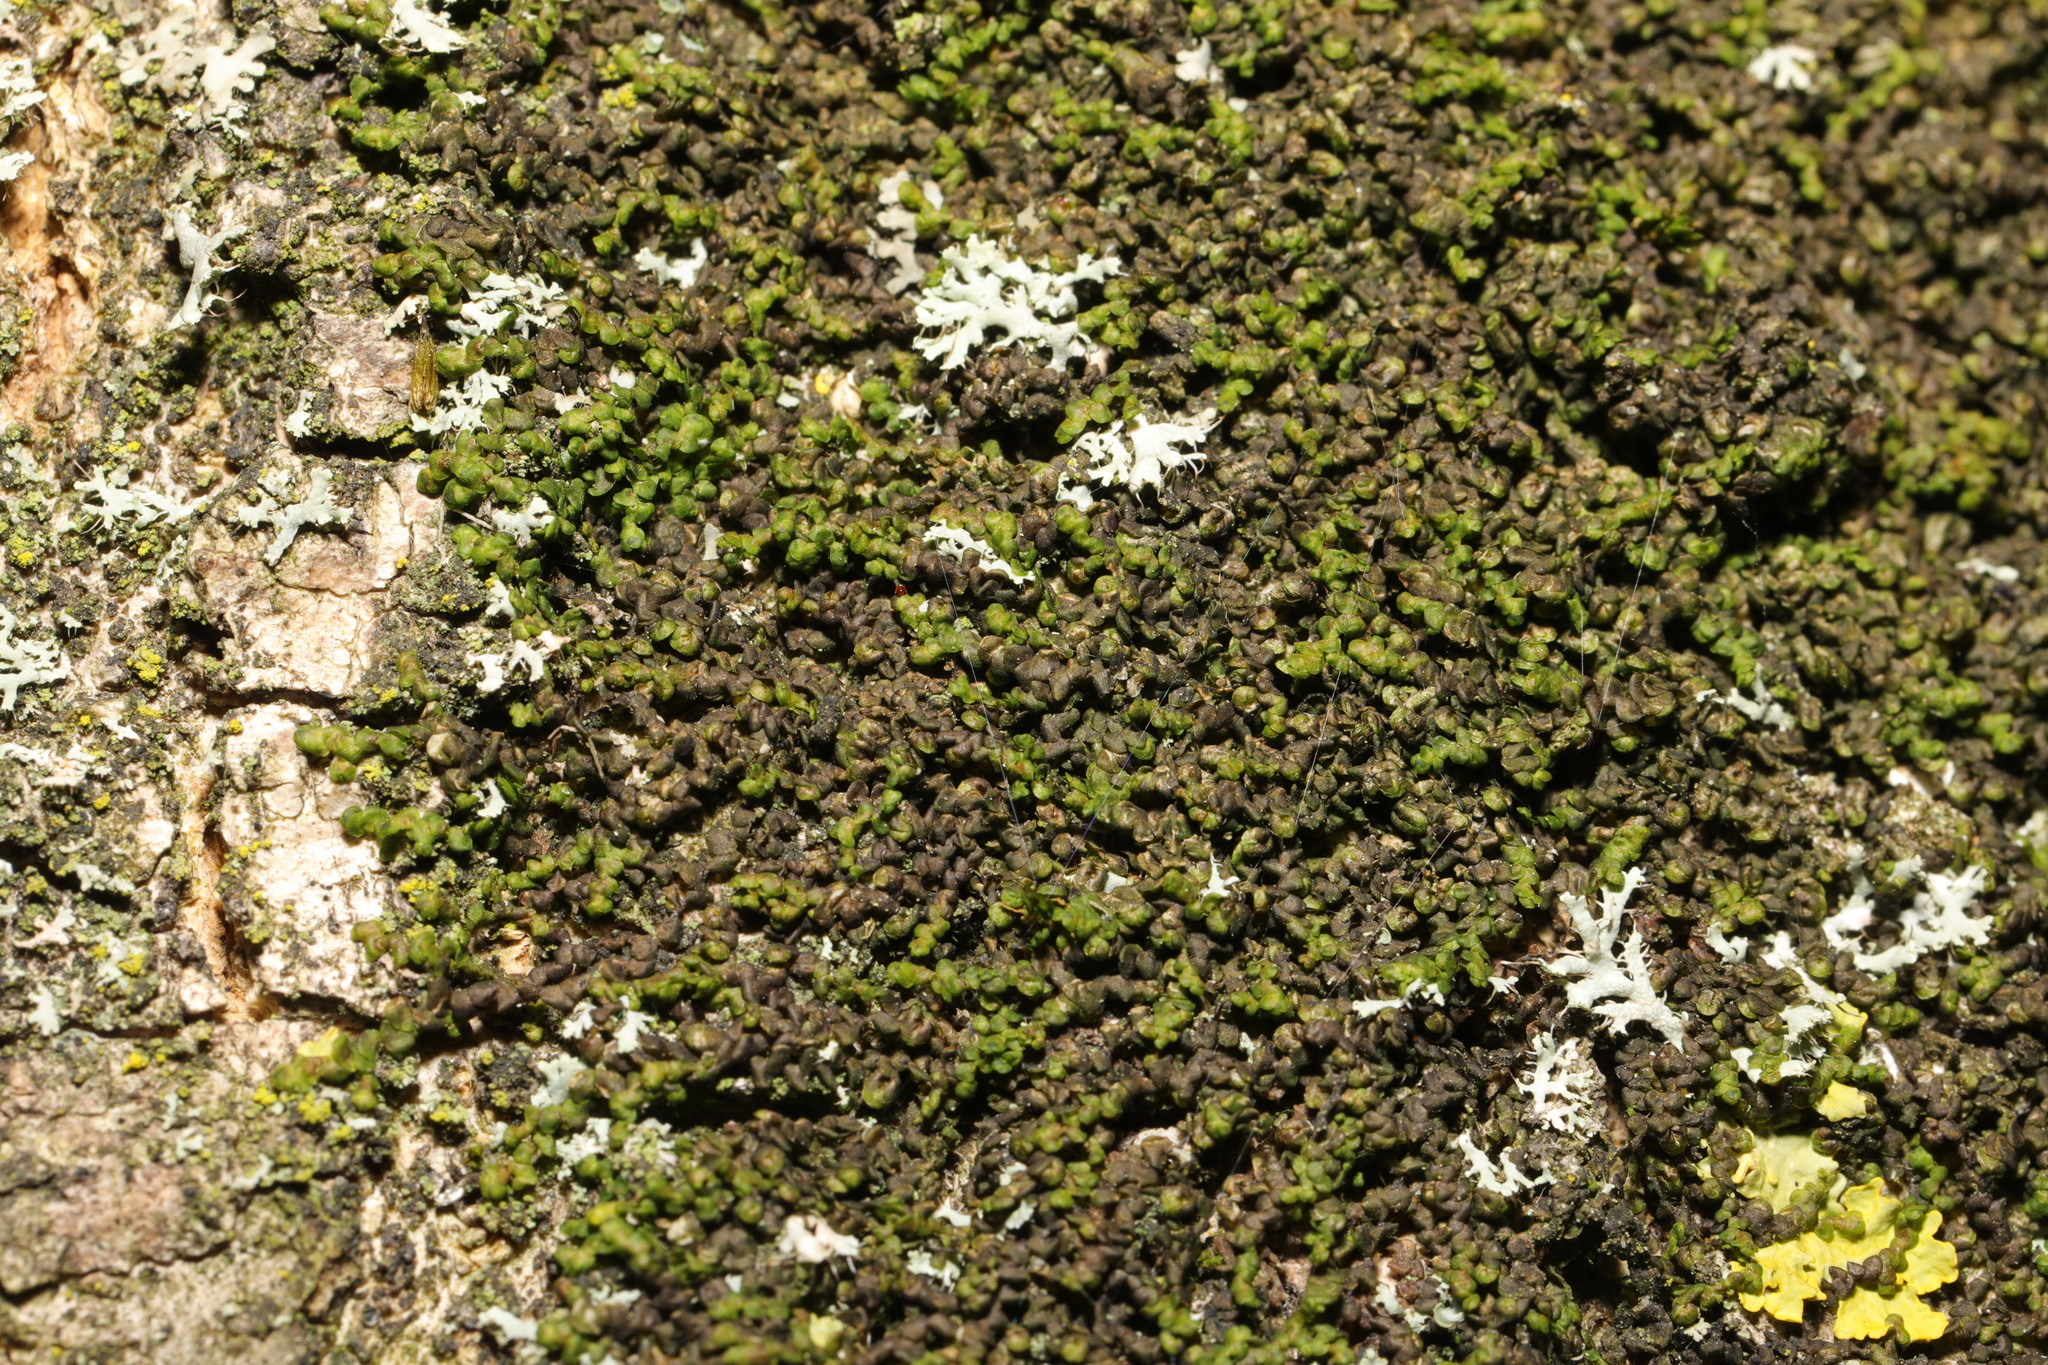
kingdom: Plantae
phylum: Marchantiophyta
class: Jungermanniopsida
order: Porellales
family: Frullaniaceae
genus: Frullania
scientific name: Frullania dilatata
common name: Dilated scalewort
